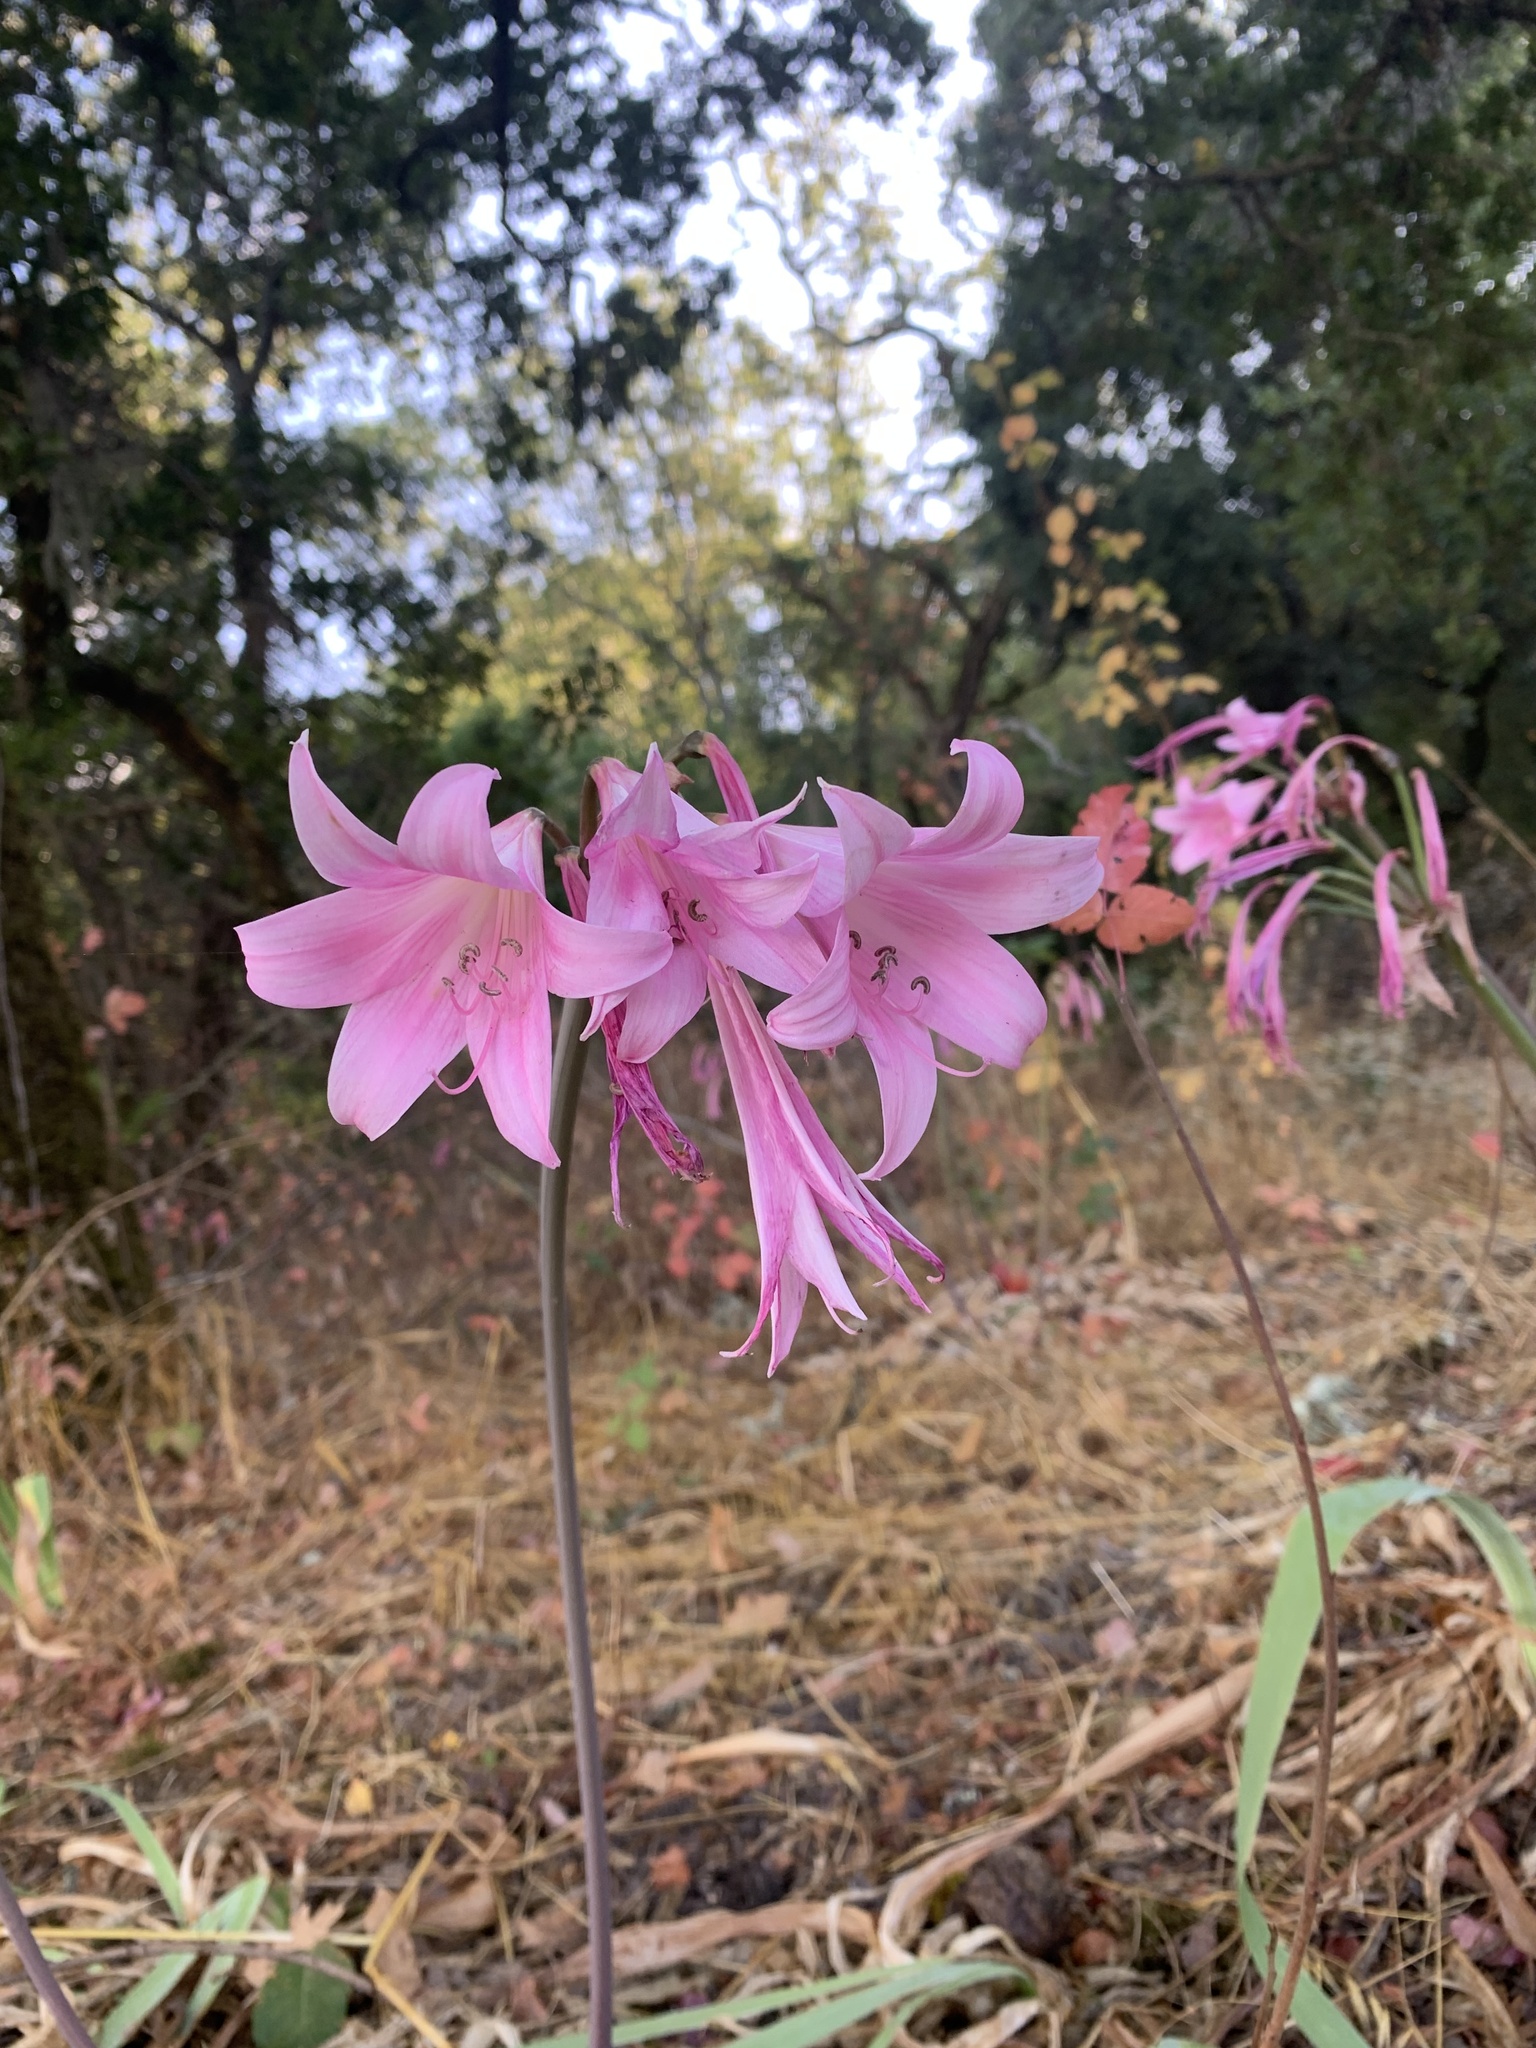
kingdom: Plantae
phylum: Tracheophyta
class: Liliopsida
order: Asparagales
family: Amaryllidaceae
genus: Amaryllis
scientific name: Amaryllis belladonna
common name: Jersey lily
